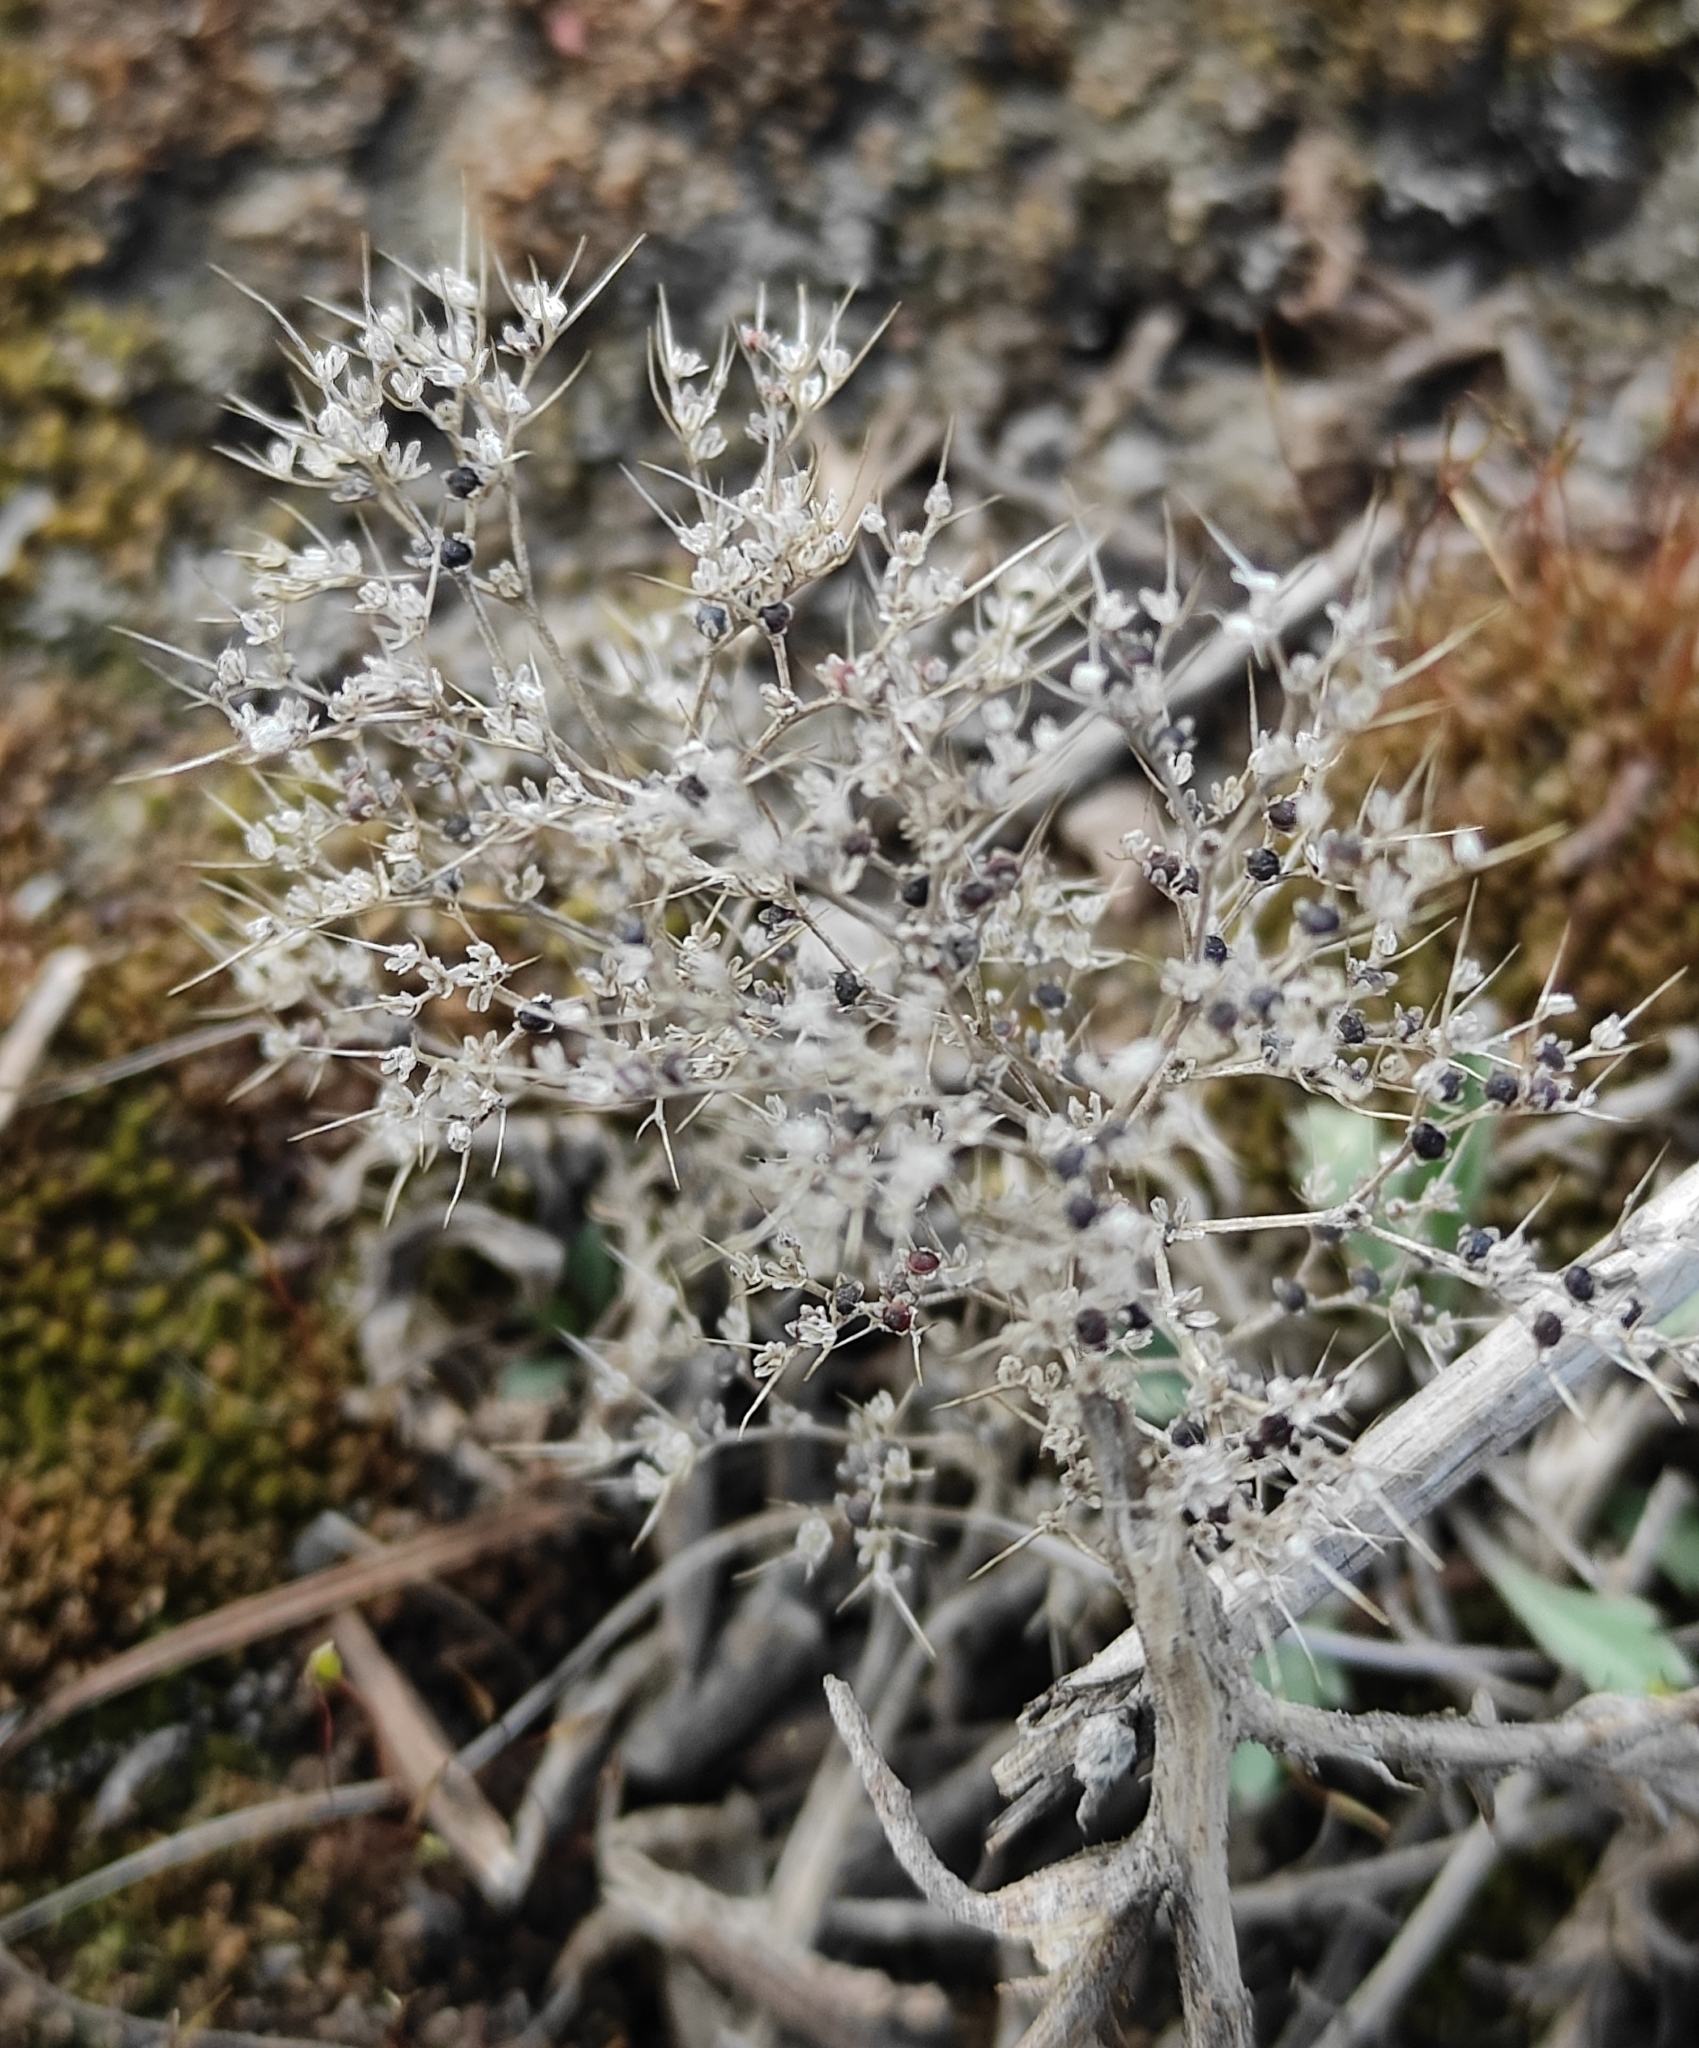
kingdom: Plantae
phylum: Tracheophyta
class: Magnoliopsida
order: Caryophyllales
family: Amaranthaceae
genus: Teloxys
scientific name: Teloxys aristata
